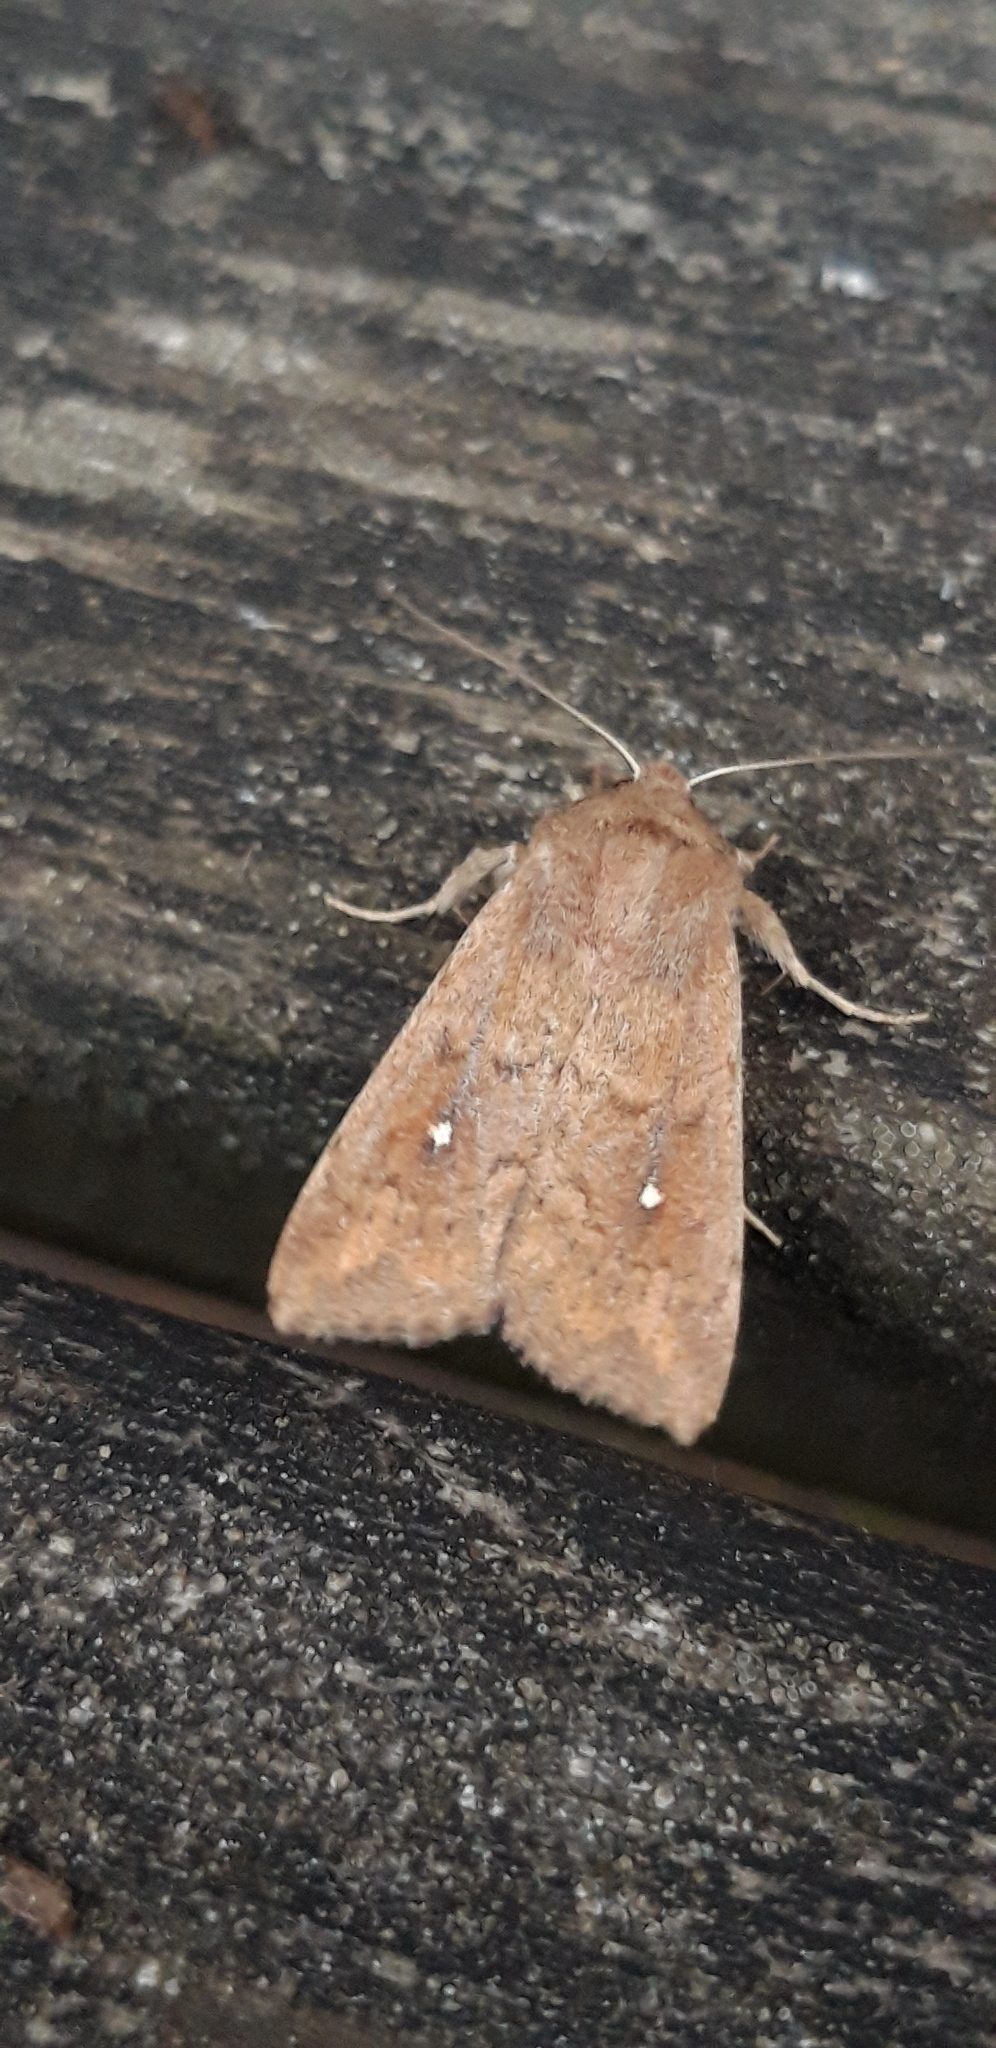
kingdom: Animalia
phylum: Arthropoda
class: Insecta
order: Lepidoptera
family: Noctuidae
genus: Mythimna
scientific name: Mythimna albipuncta
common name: White-point
